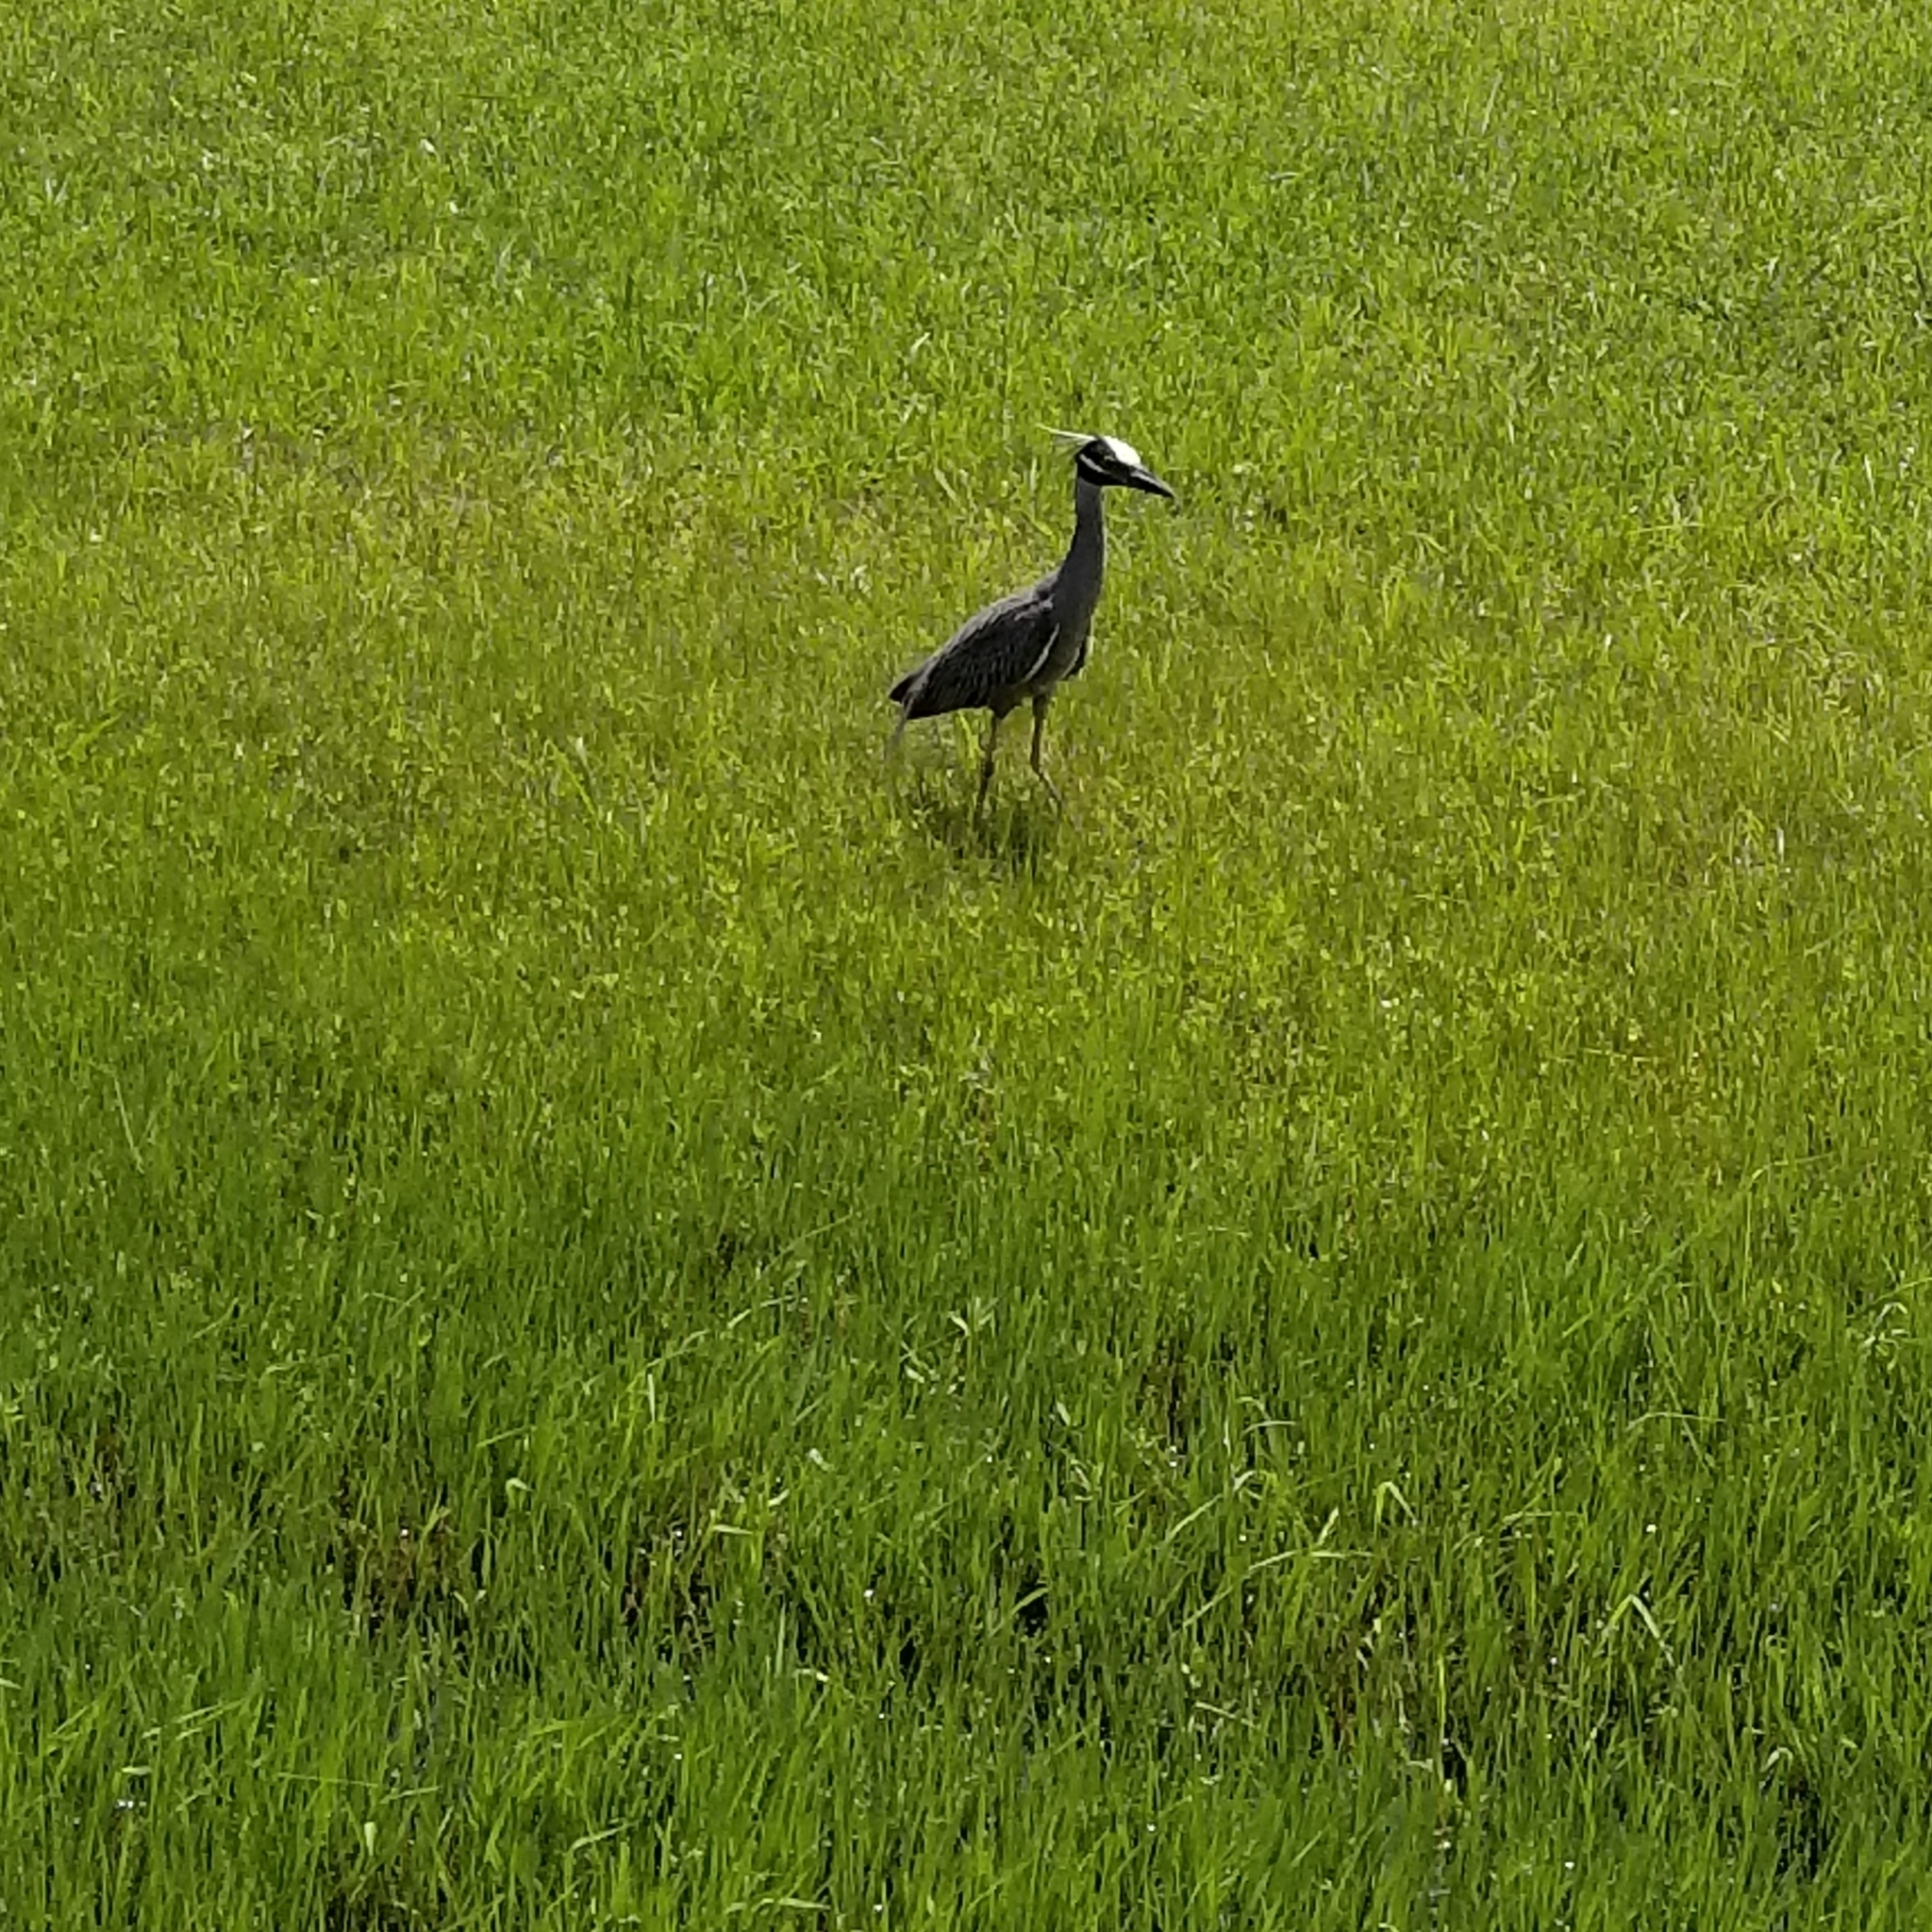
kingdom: Animalia
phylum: Chordata
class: Aves
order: Pelecaniformes
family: Ardeidae
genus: Nyctanassa
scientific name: Nyctanassa violacea
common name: Yellow-crowned night heron
